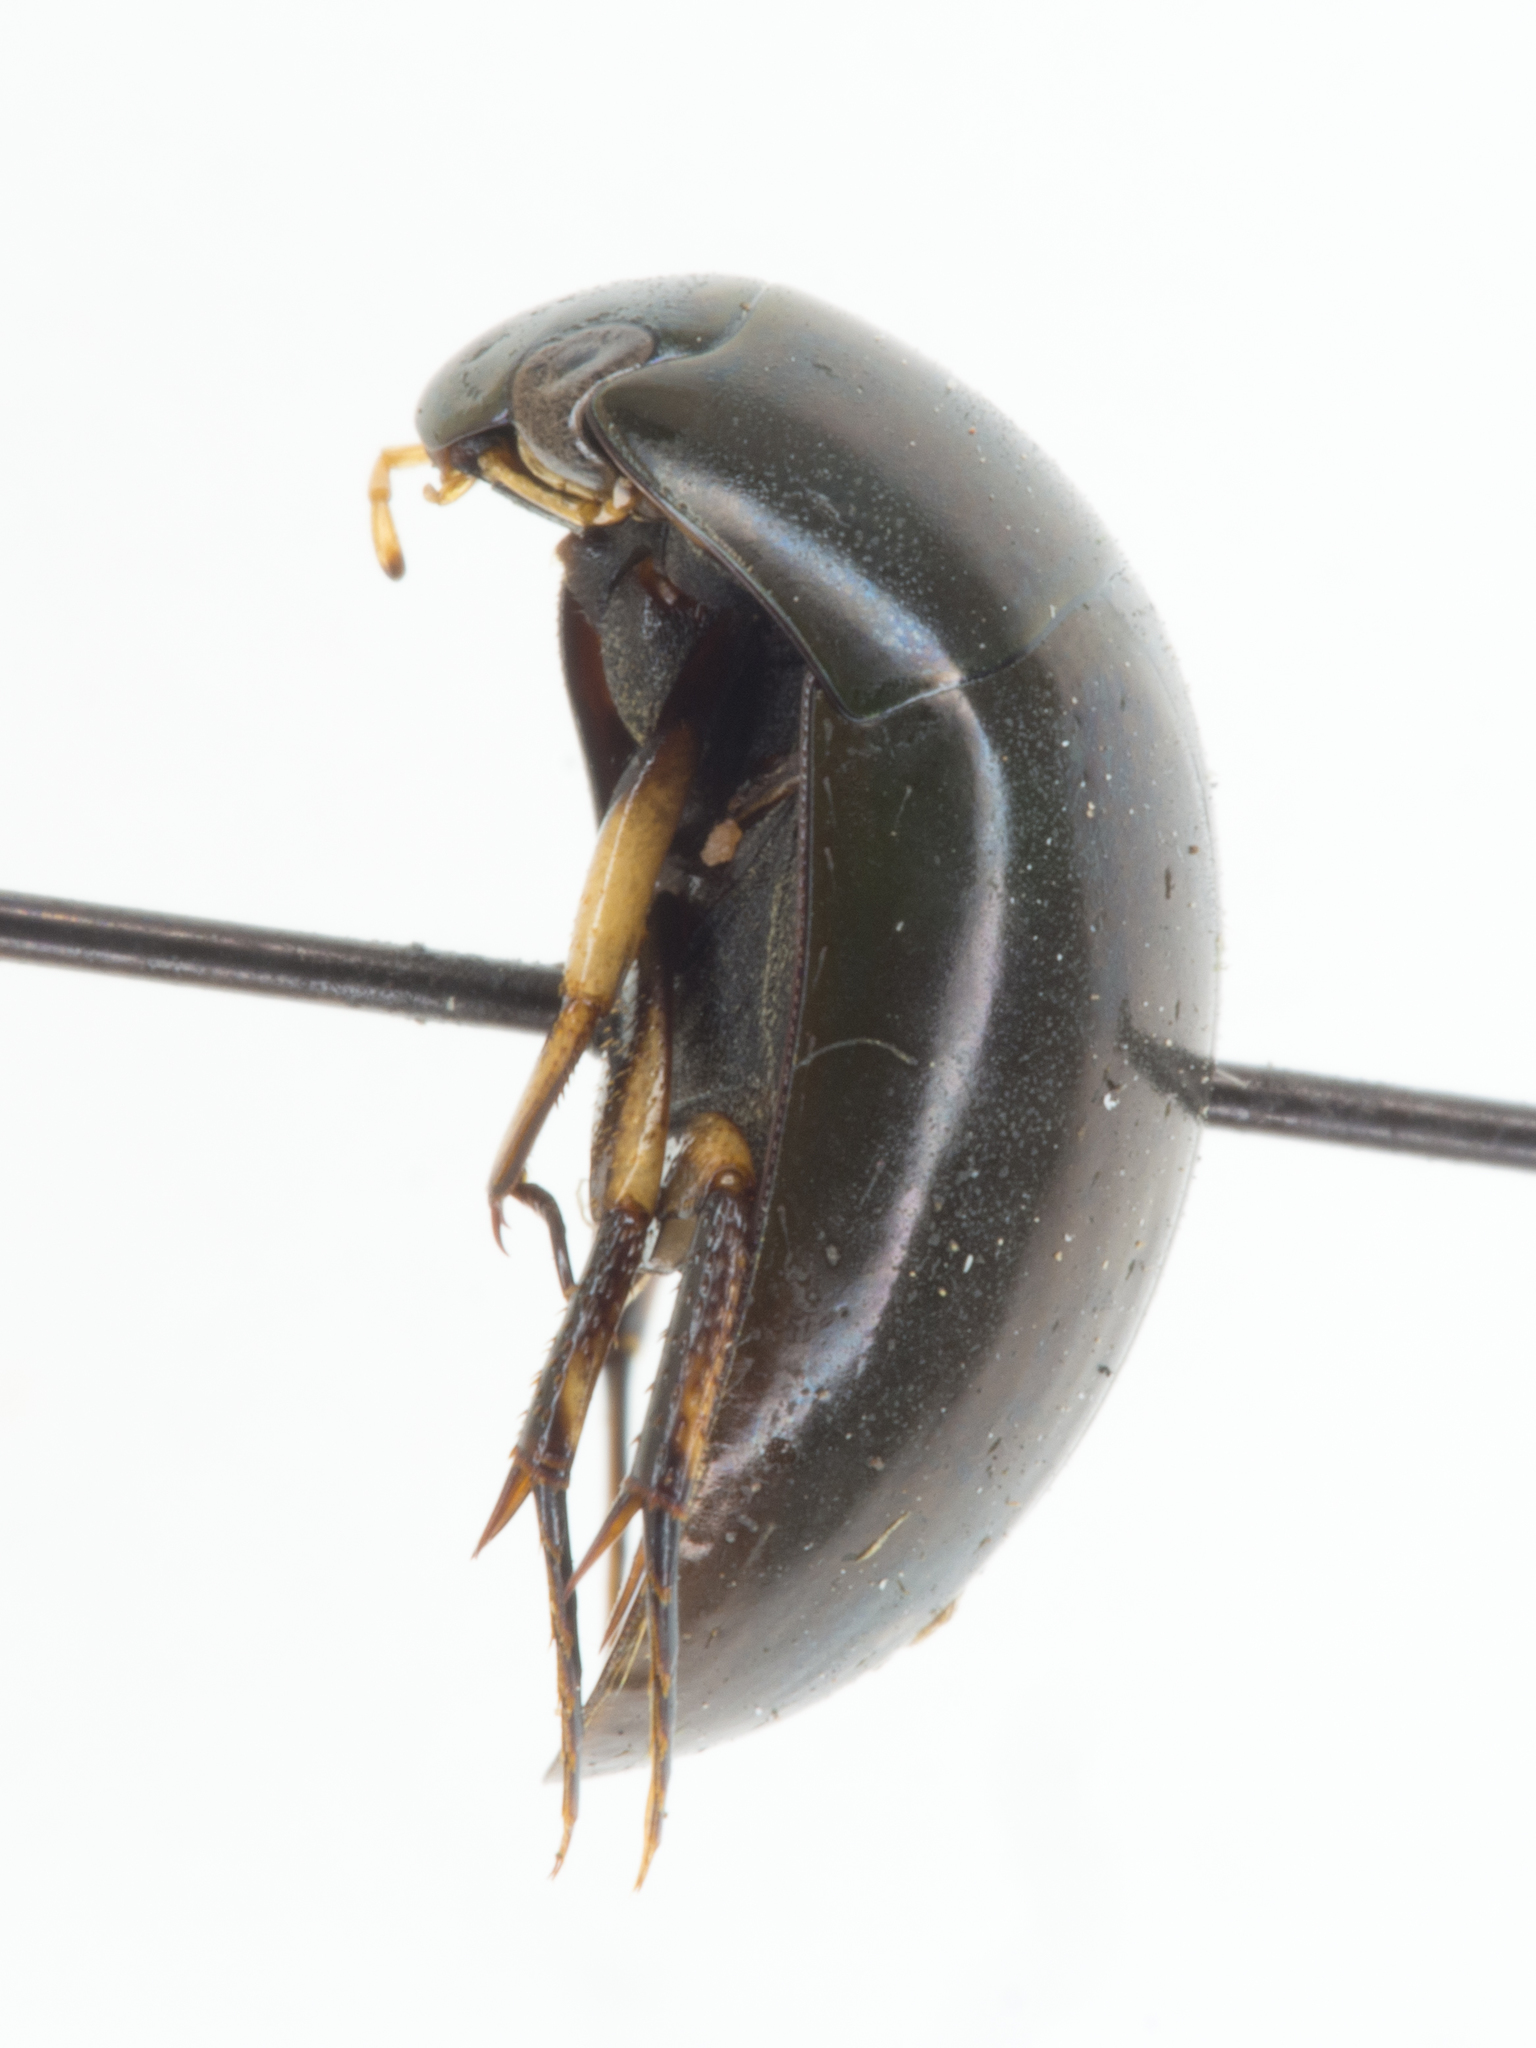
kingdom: Animalia
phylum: Arthropoda
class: Insecta
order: Coleoptera
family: Hydrophilidae
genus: Tropisternus
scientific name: Tropisternus affinis
